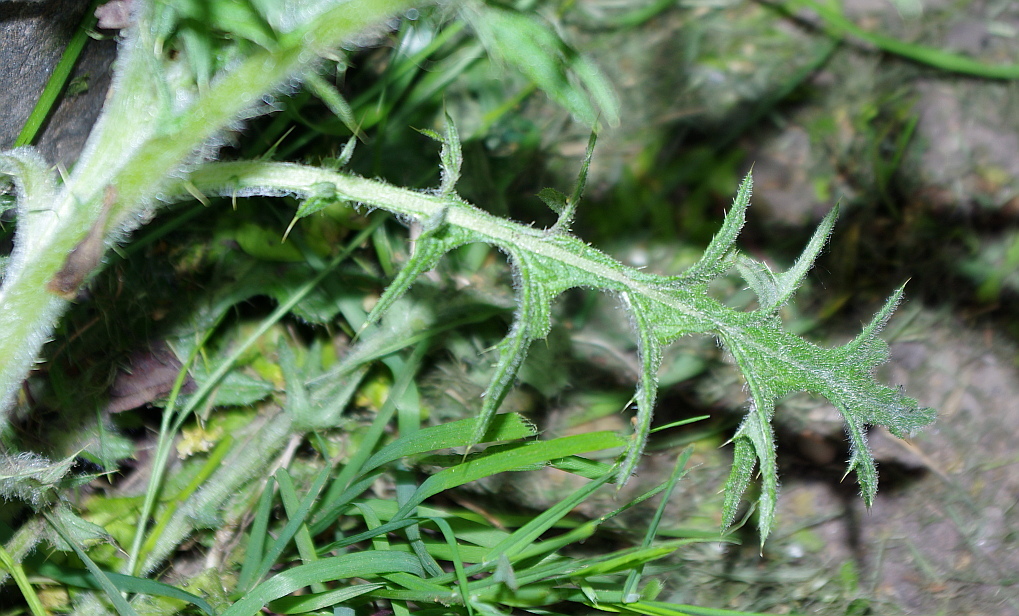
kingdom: Plantae
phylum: Tracheophyta
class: Magnoliopsida
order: Asterales
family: Asteraceae
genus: Cirsium
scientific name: Cirsium vulgare
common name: Bull thistle
